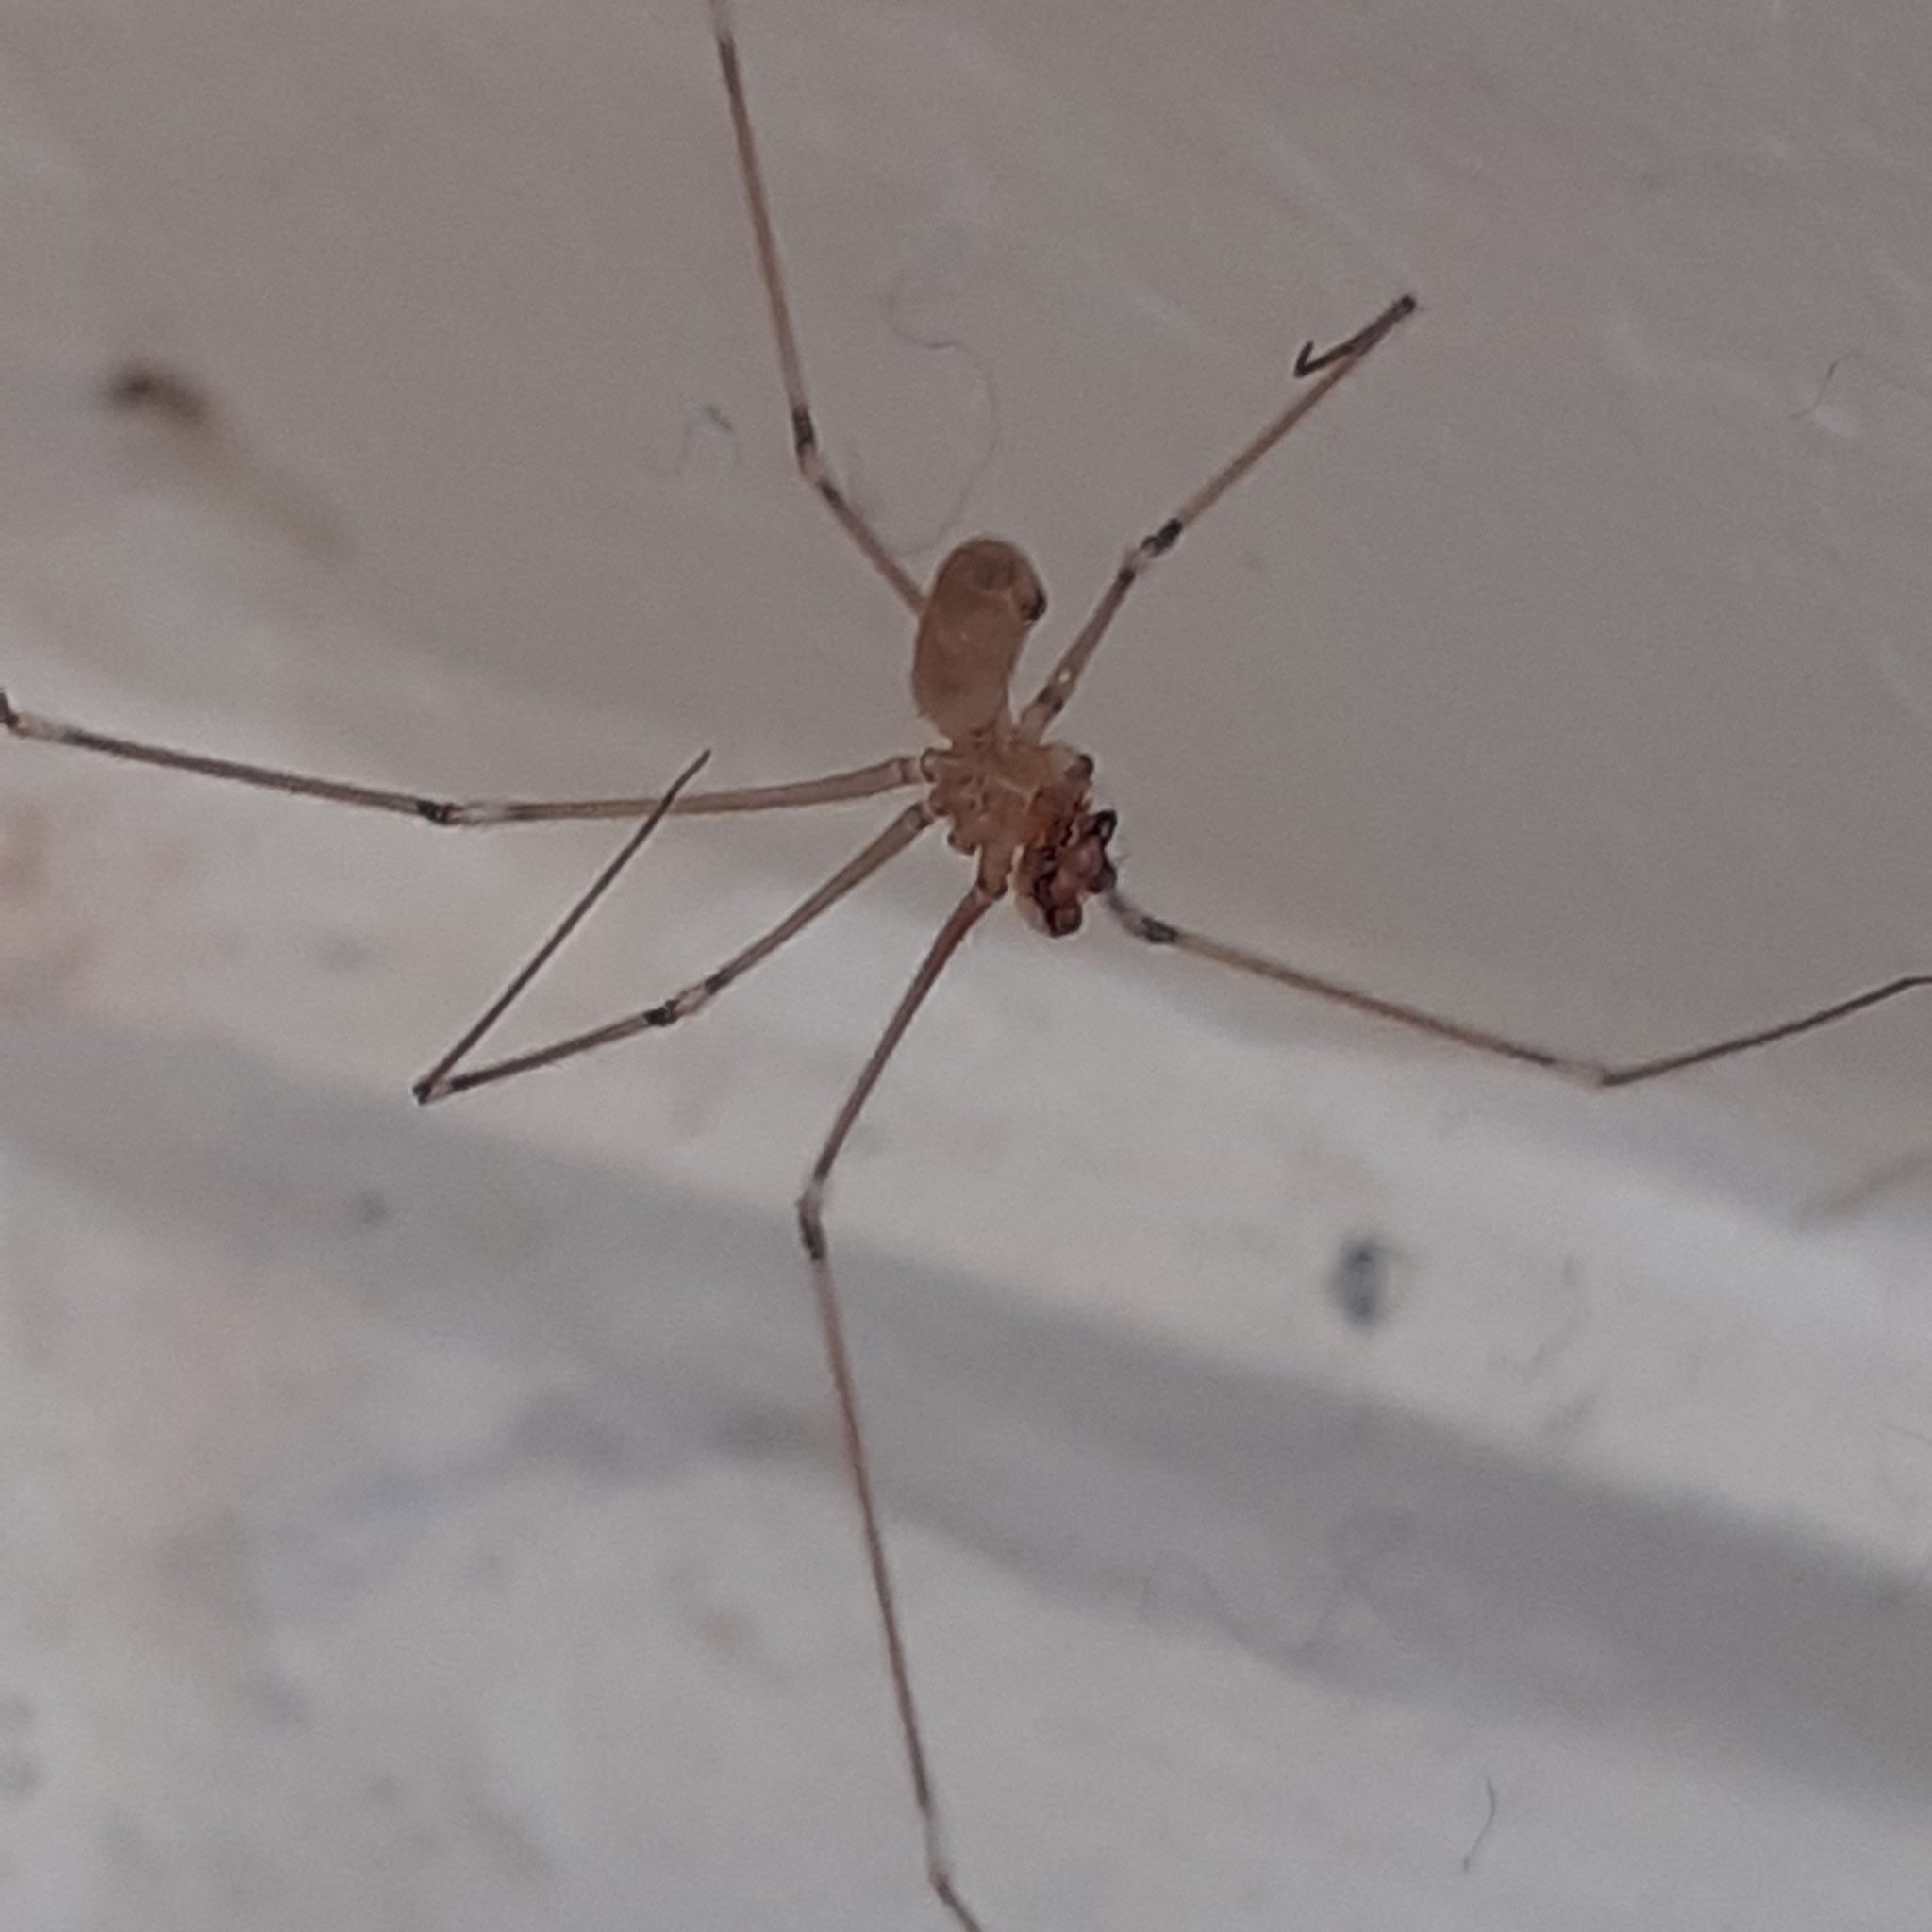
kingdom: Animalia
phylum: Arthropoda
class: Arachnida
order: Araneae
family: Pholcidae
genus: Pholcus
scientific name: Pholcus phalangioides
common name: Longbodied cellar spider
